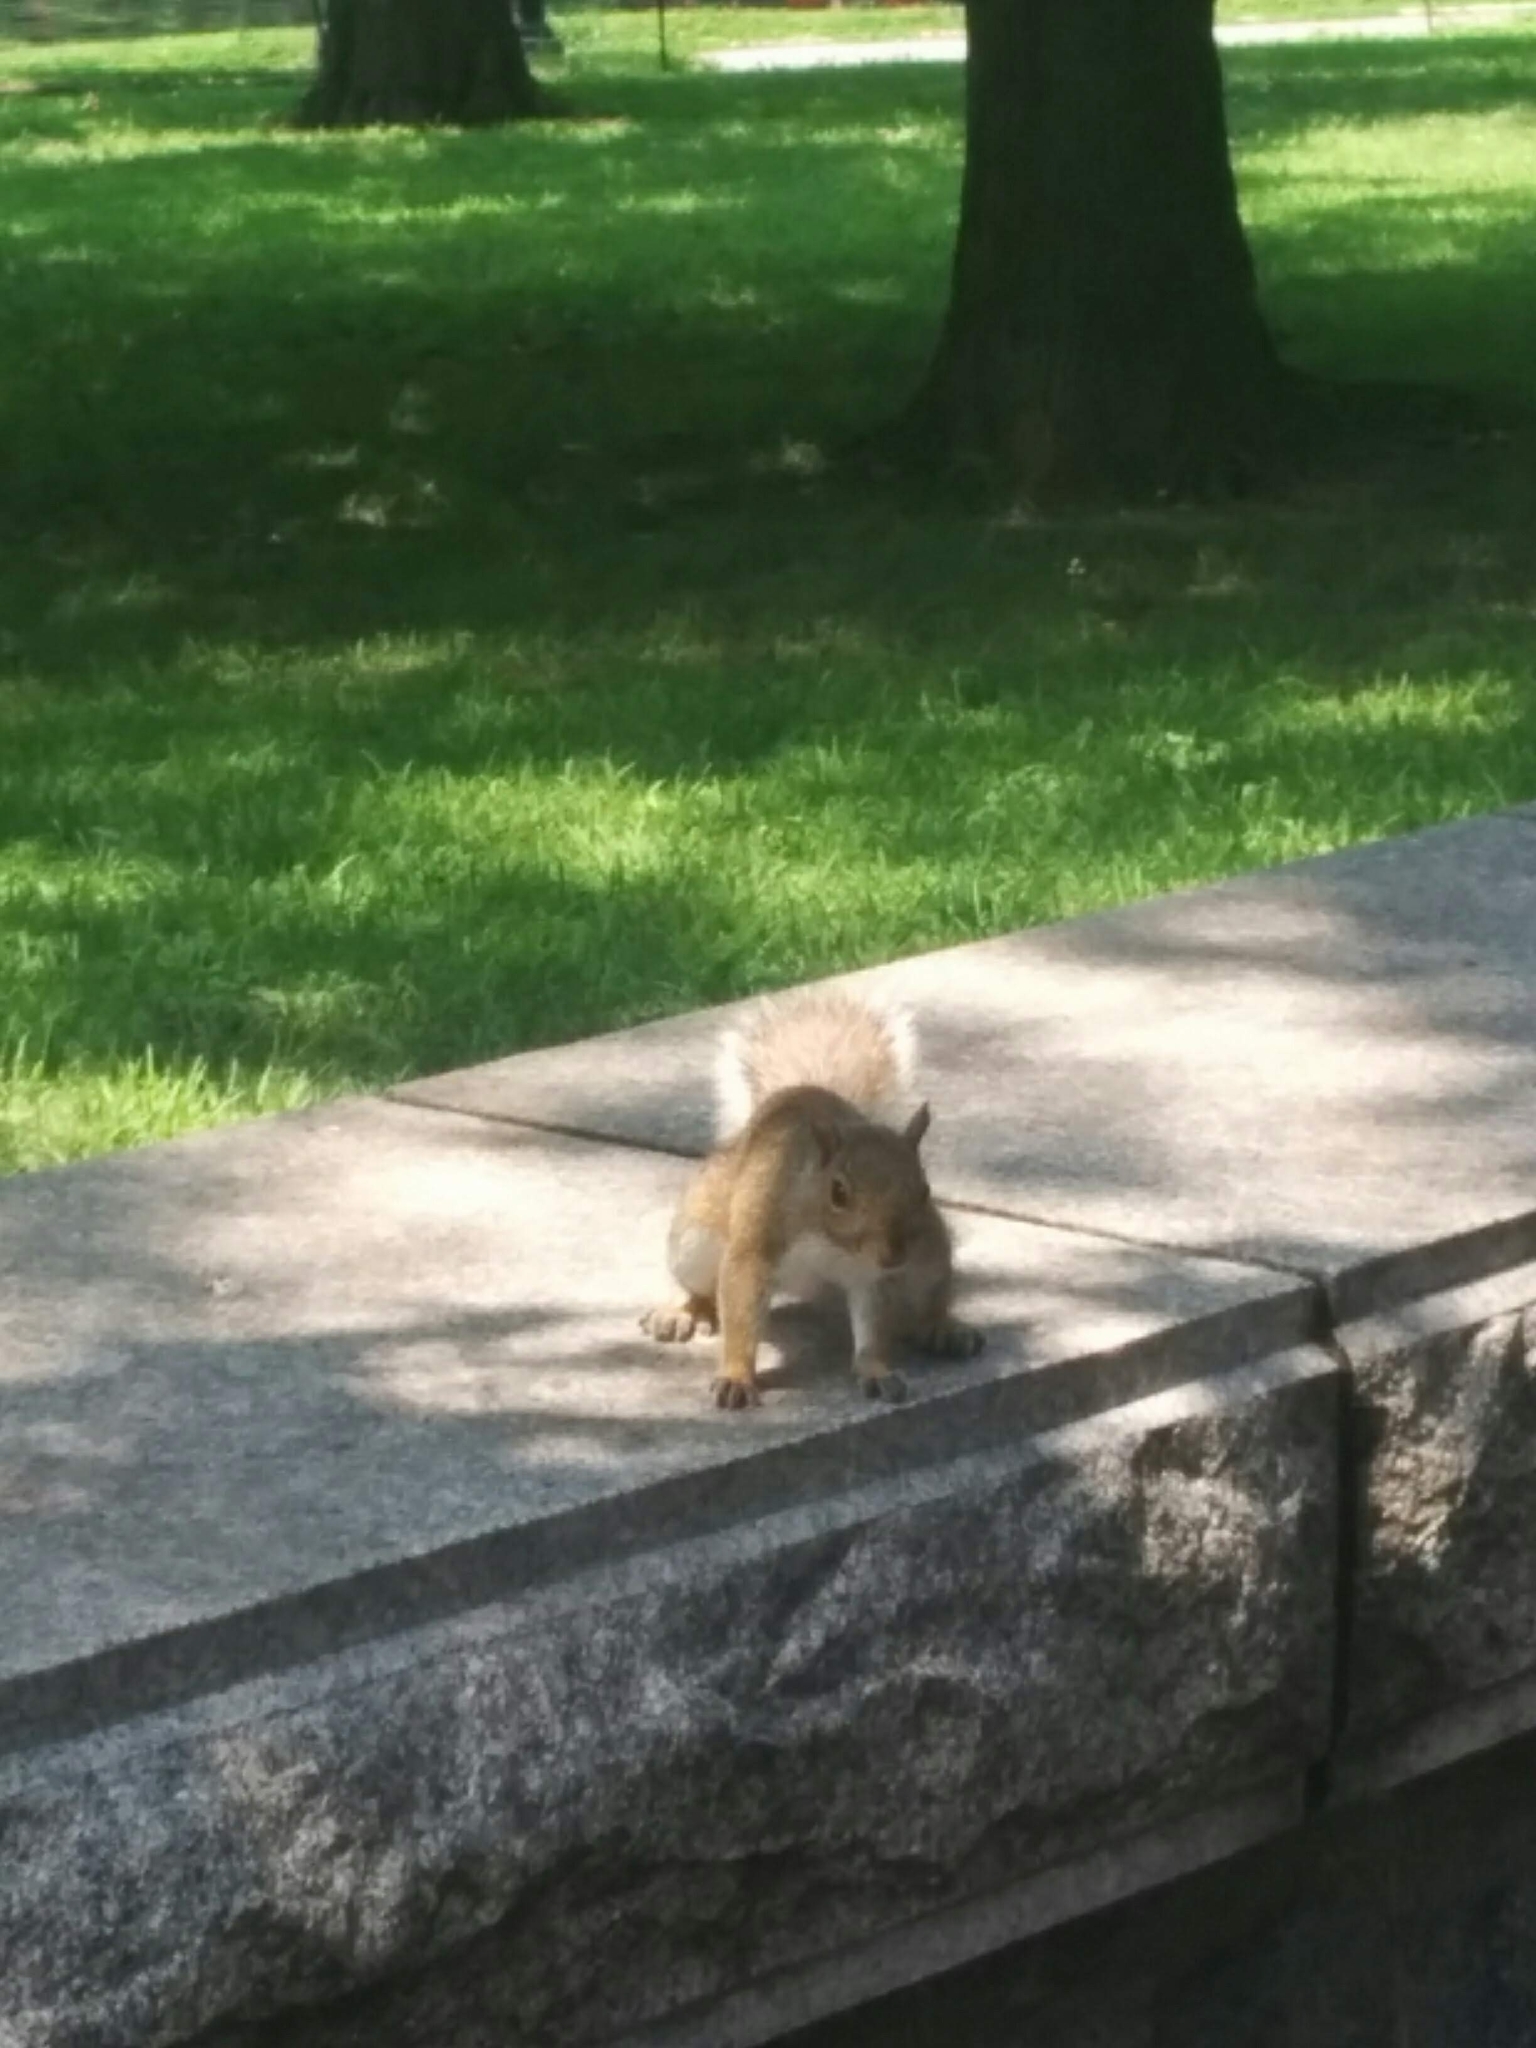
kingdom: Animalia
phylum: Chordata
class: Mammalia
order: Rodentia
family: Sciuridae
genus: Sciurus
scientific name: Sciurus carolinensis
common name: Eastern gray squirrel
